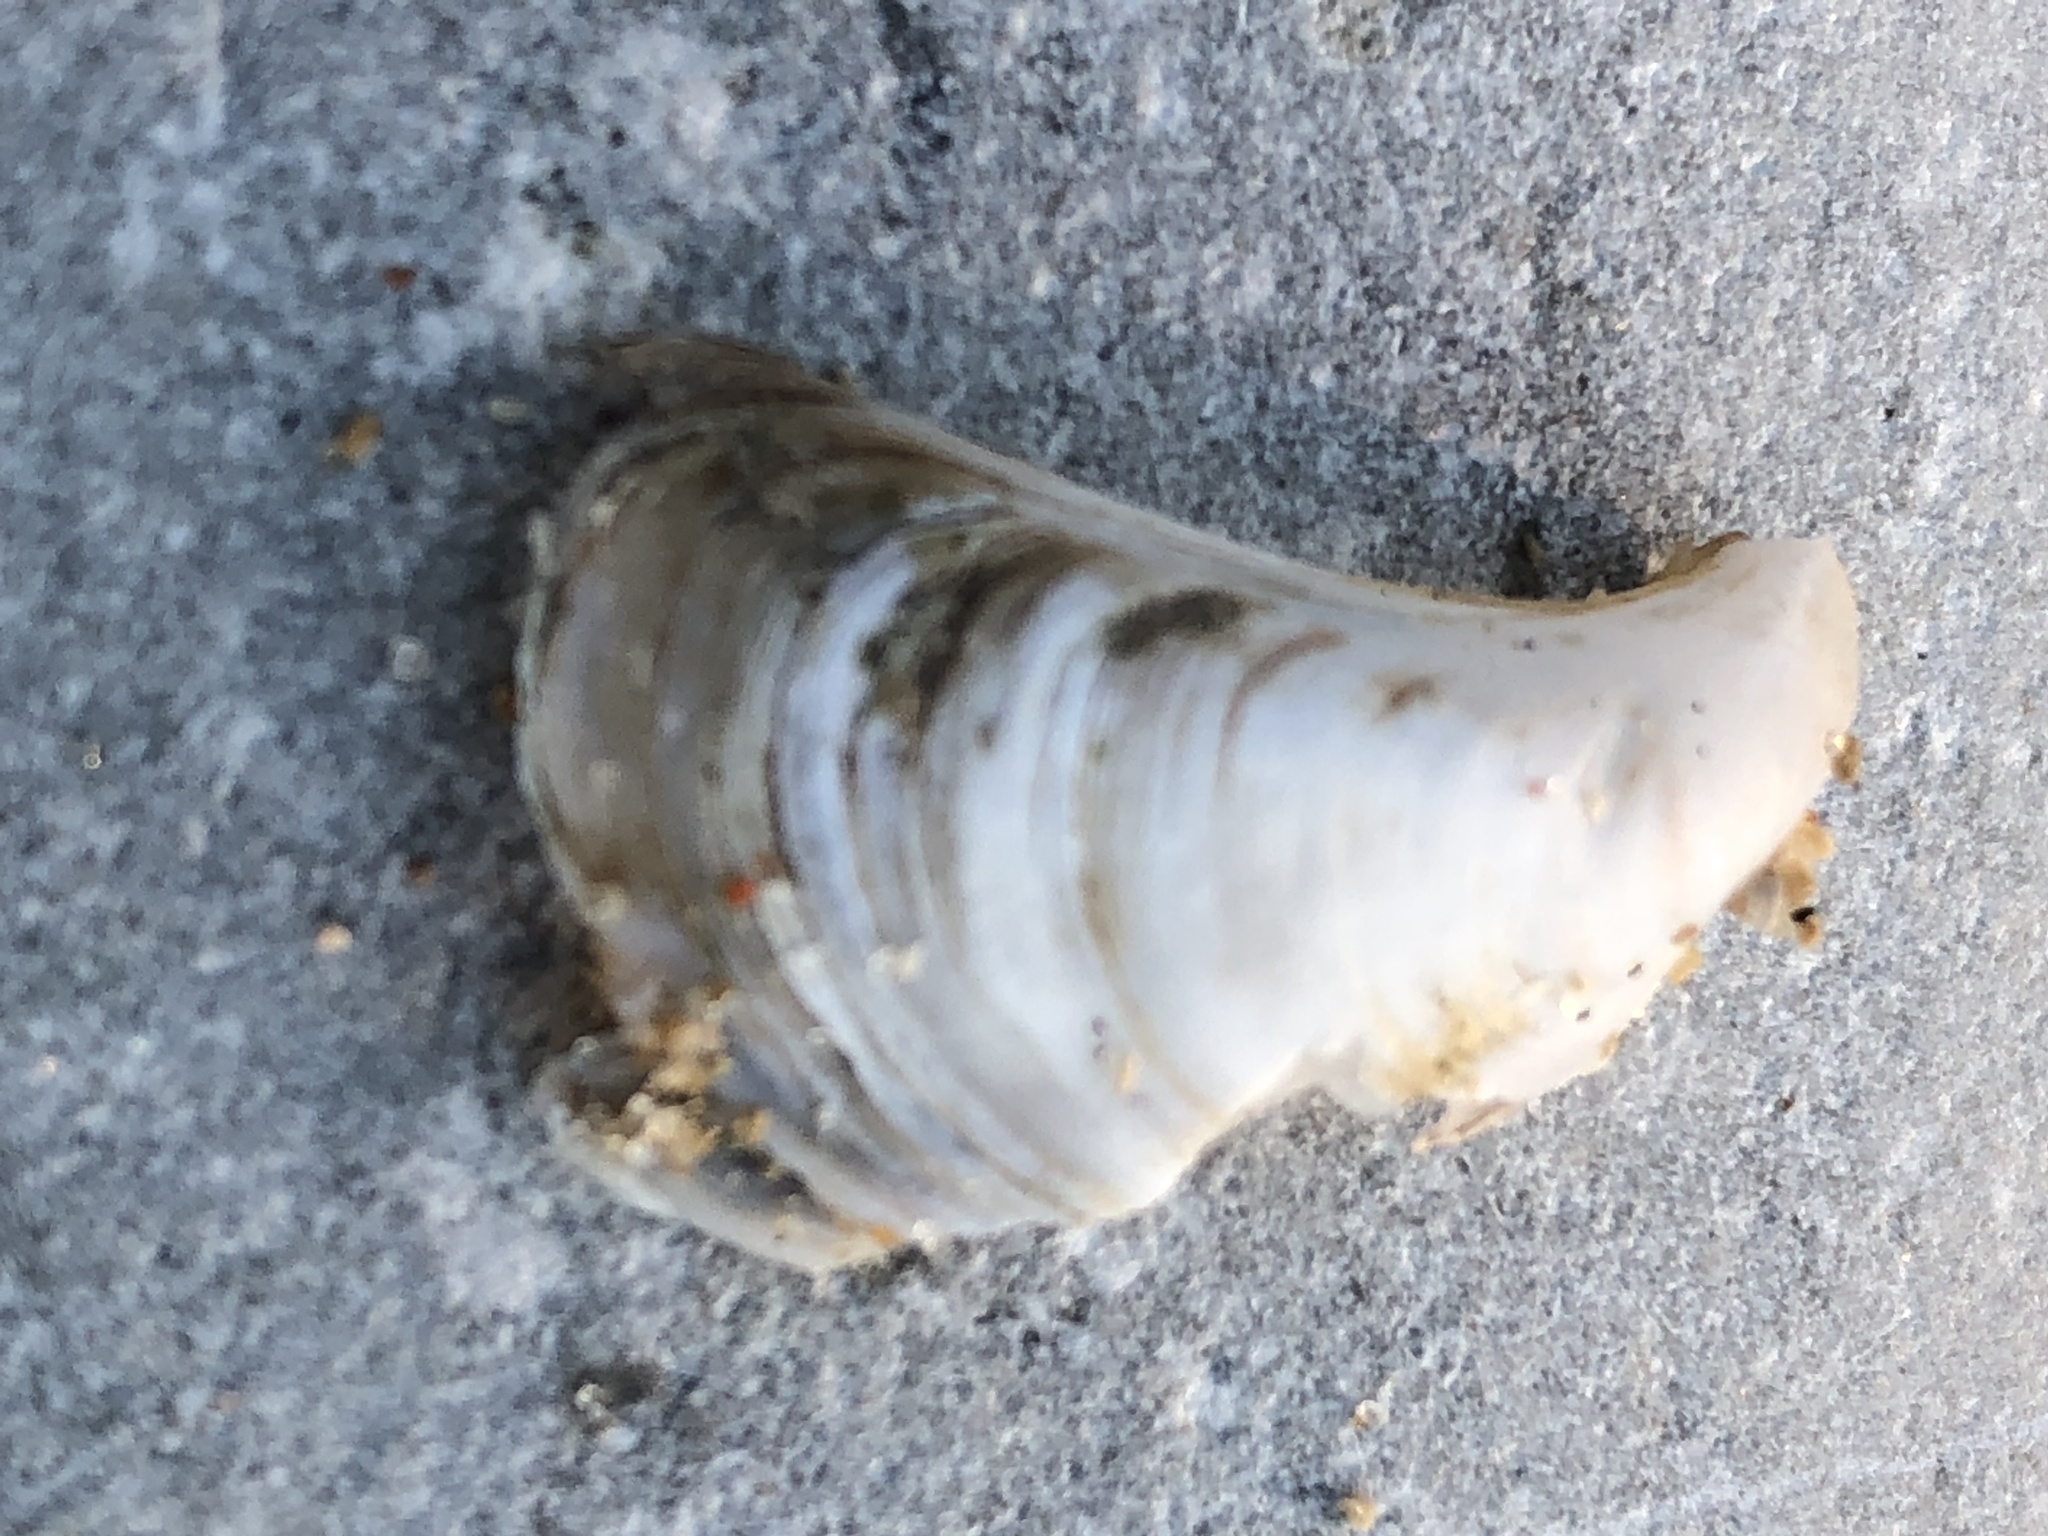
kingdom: Animalia
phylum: Mollusca
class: Bivalvia
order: Myida
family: Dreissenidae
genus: Dreissena
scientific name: Dreissena bugensis
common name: Quagga mussel
